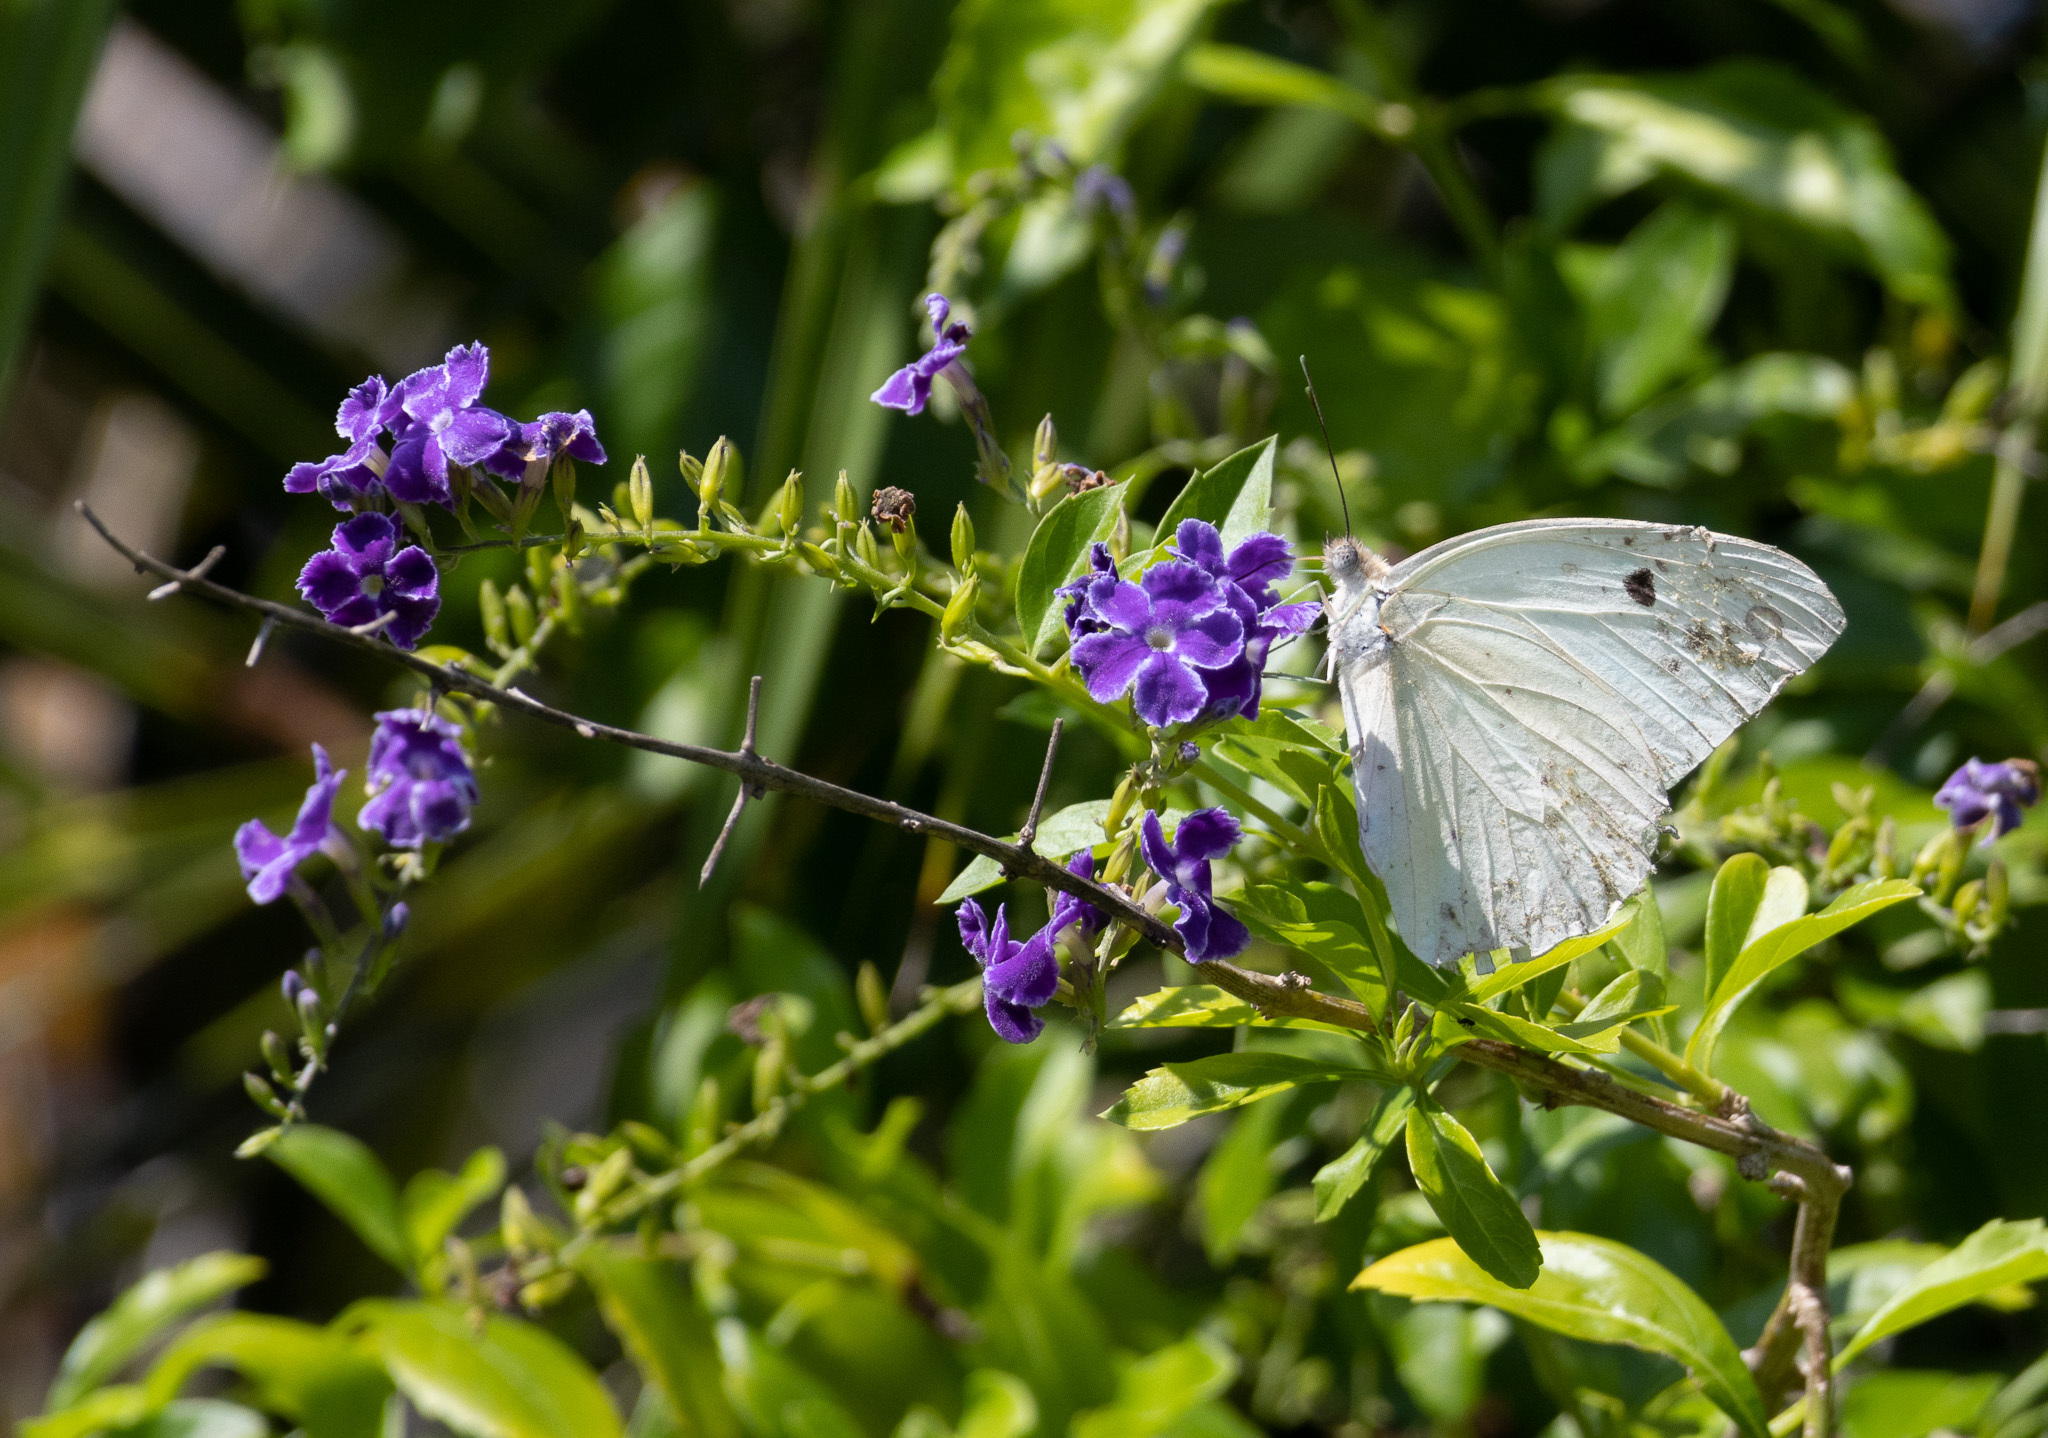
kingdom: Animalia
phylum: Arthropoda
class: Insecta
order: Lepidoptera
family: Pieridae
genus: Ganyra
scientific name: Ganyra josephina
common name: Giant white
